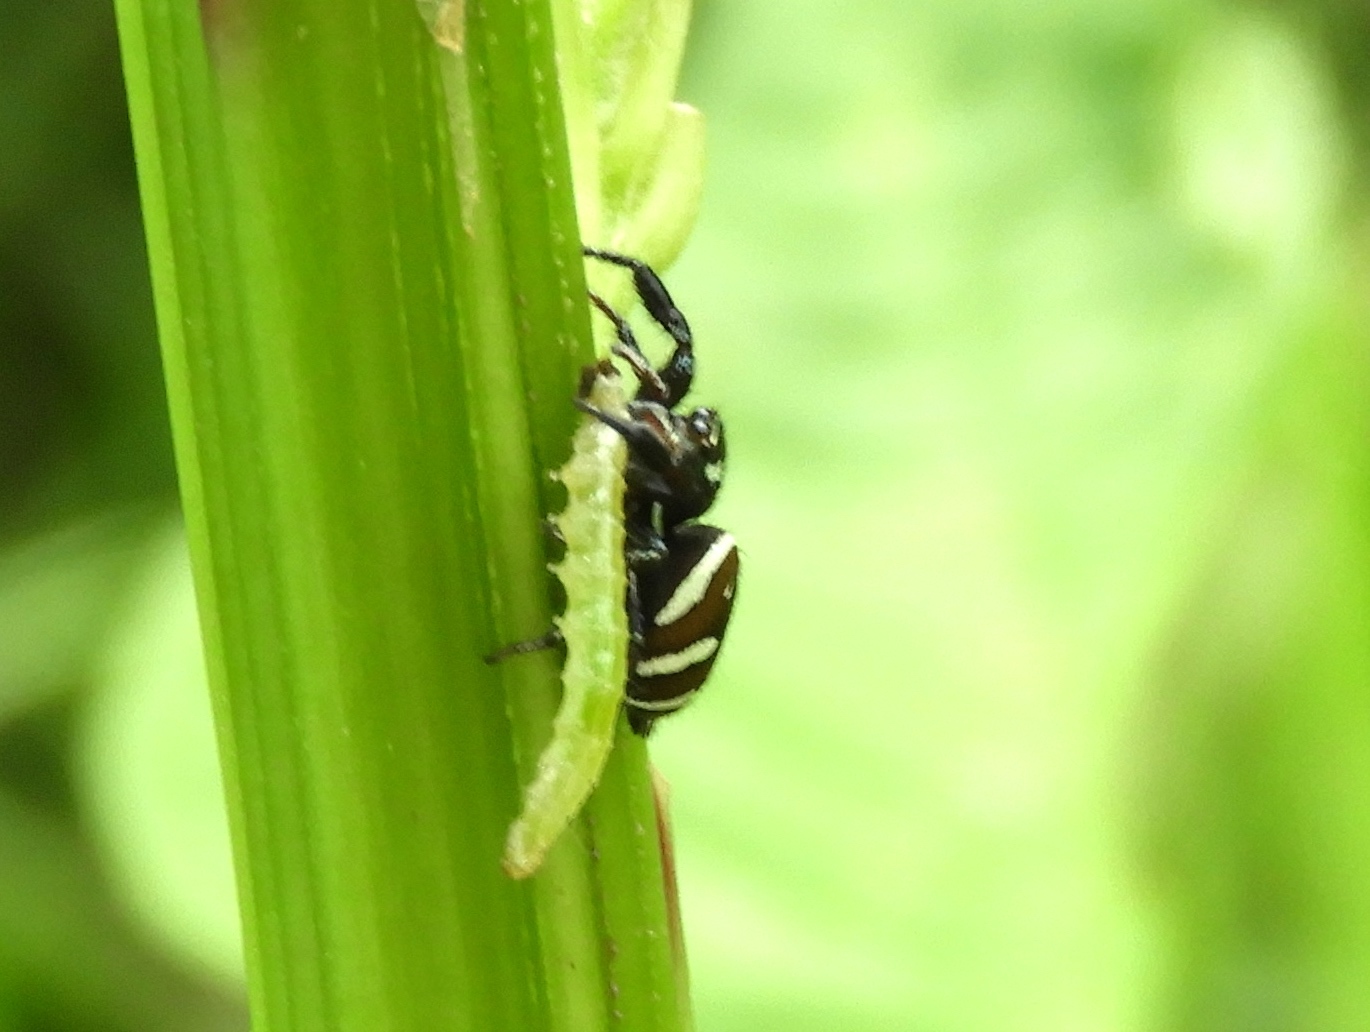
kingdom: Animalia
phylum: Arthropoda
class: Arachnida
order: Araneae
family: Salticidae
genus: Salticus
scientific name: Salticus
